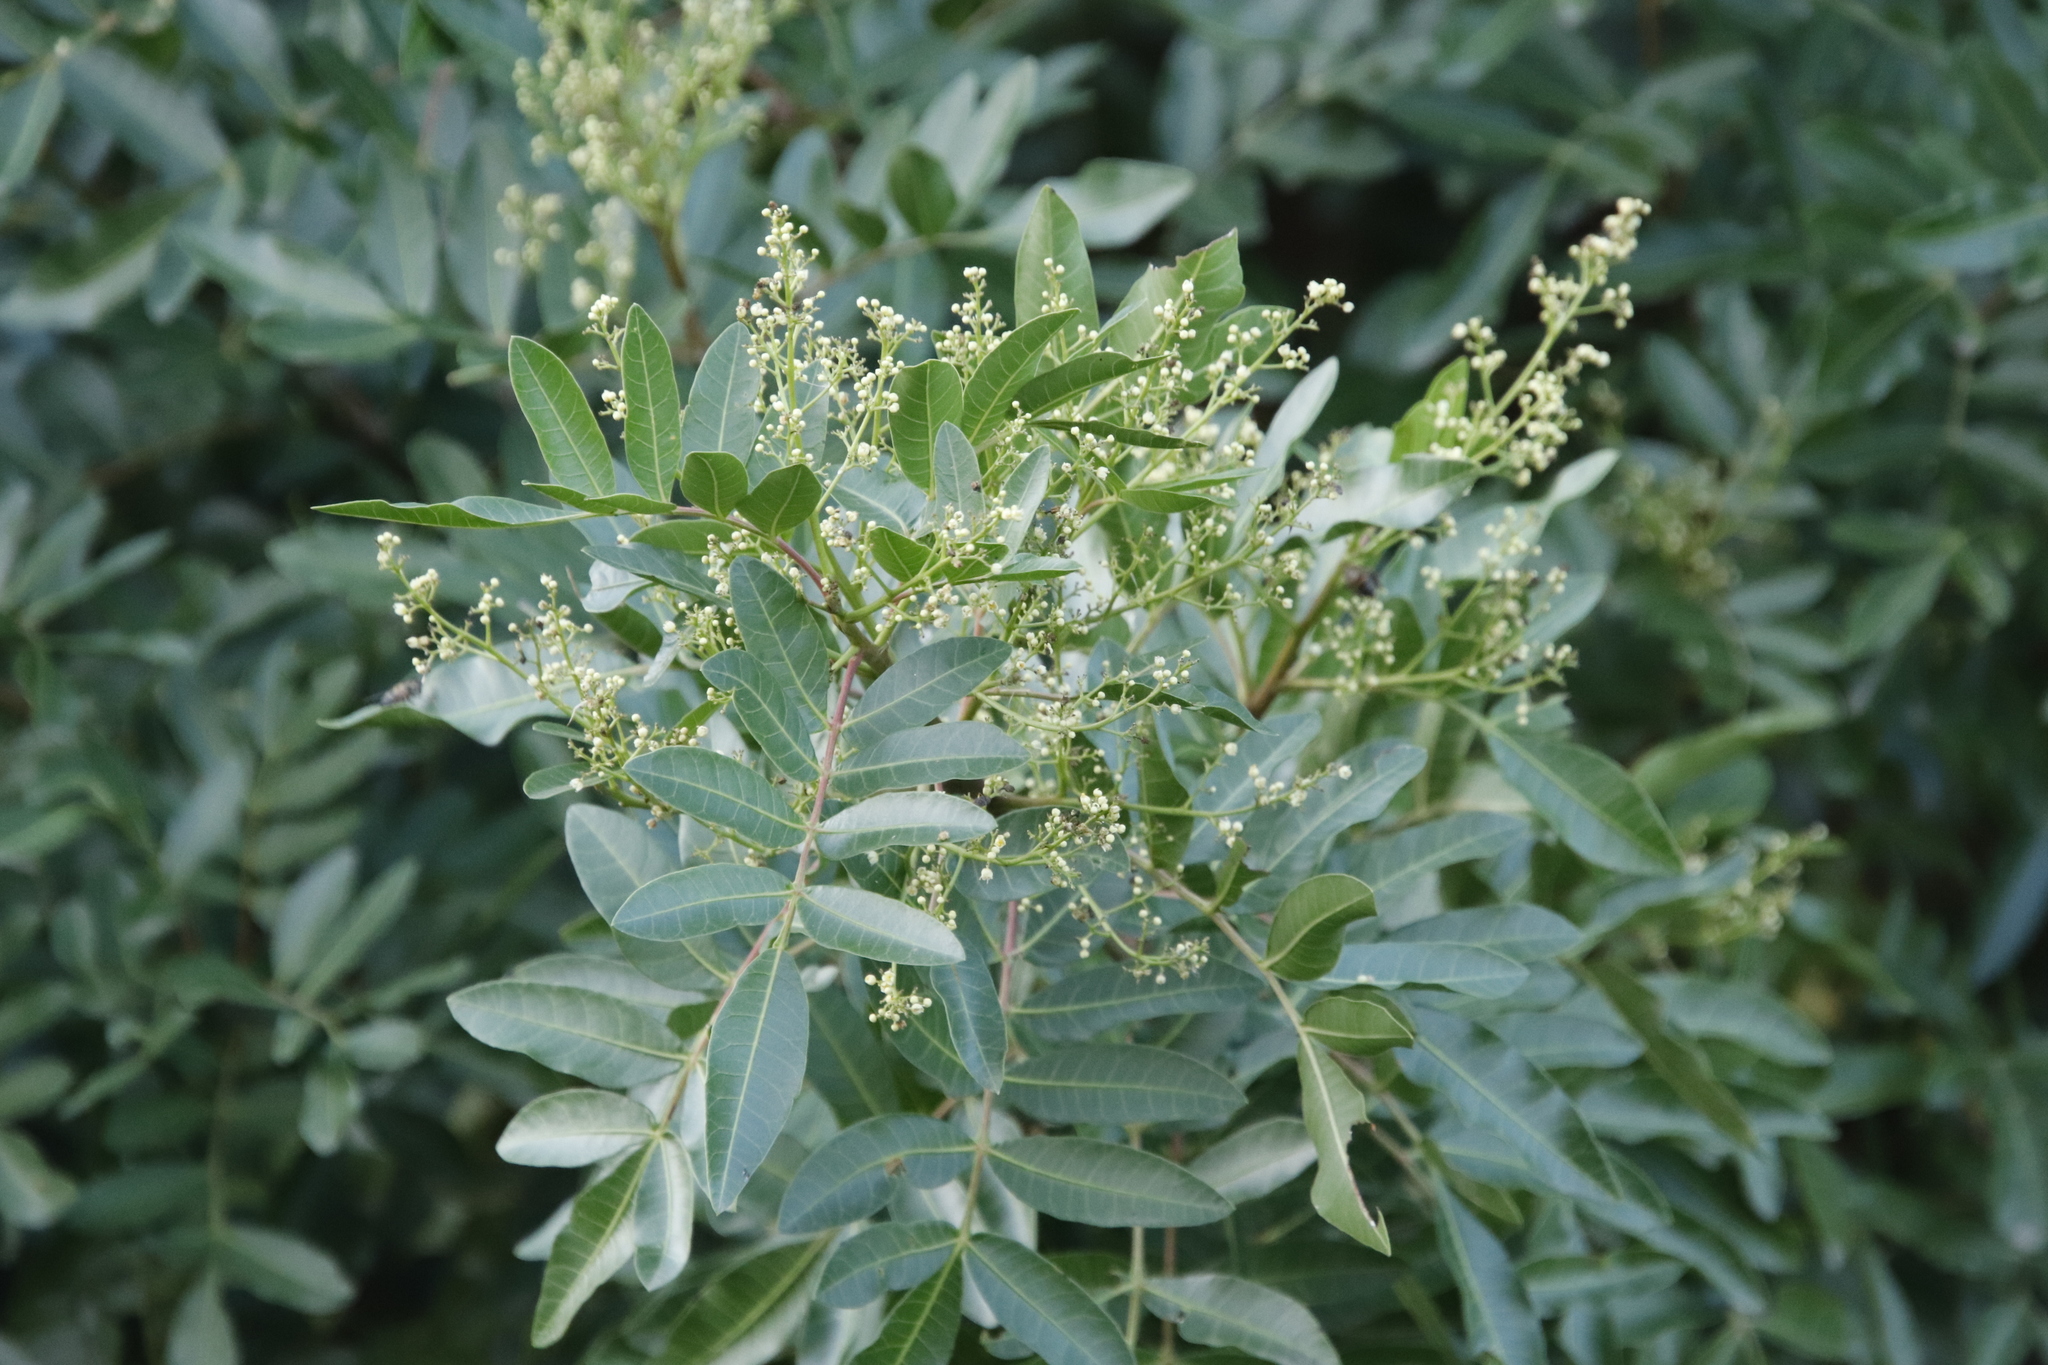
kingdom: Plantae
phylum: Tracheophyta
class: Magnoliopsida
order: Sapindales
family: Anacardiaceae
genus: Schinus
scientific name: Schinus terebinthifolia
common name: Brazilian peppertree
